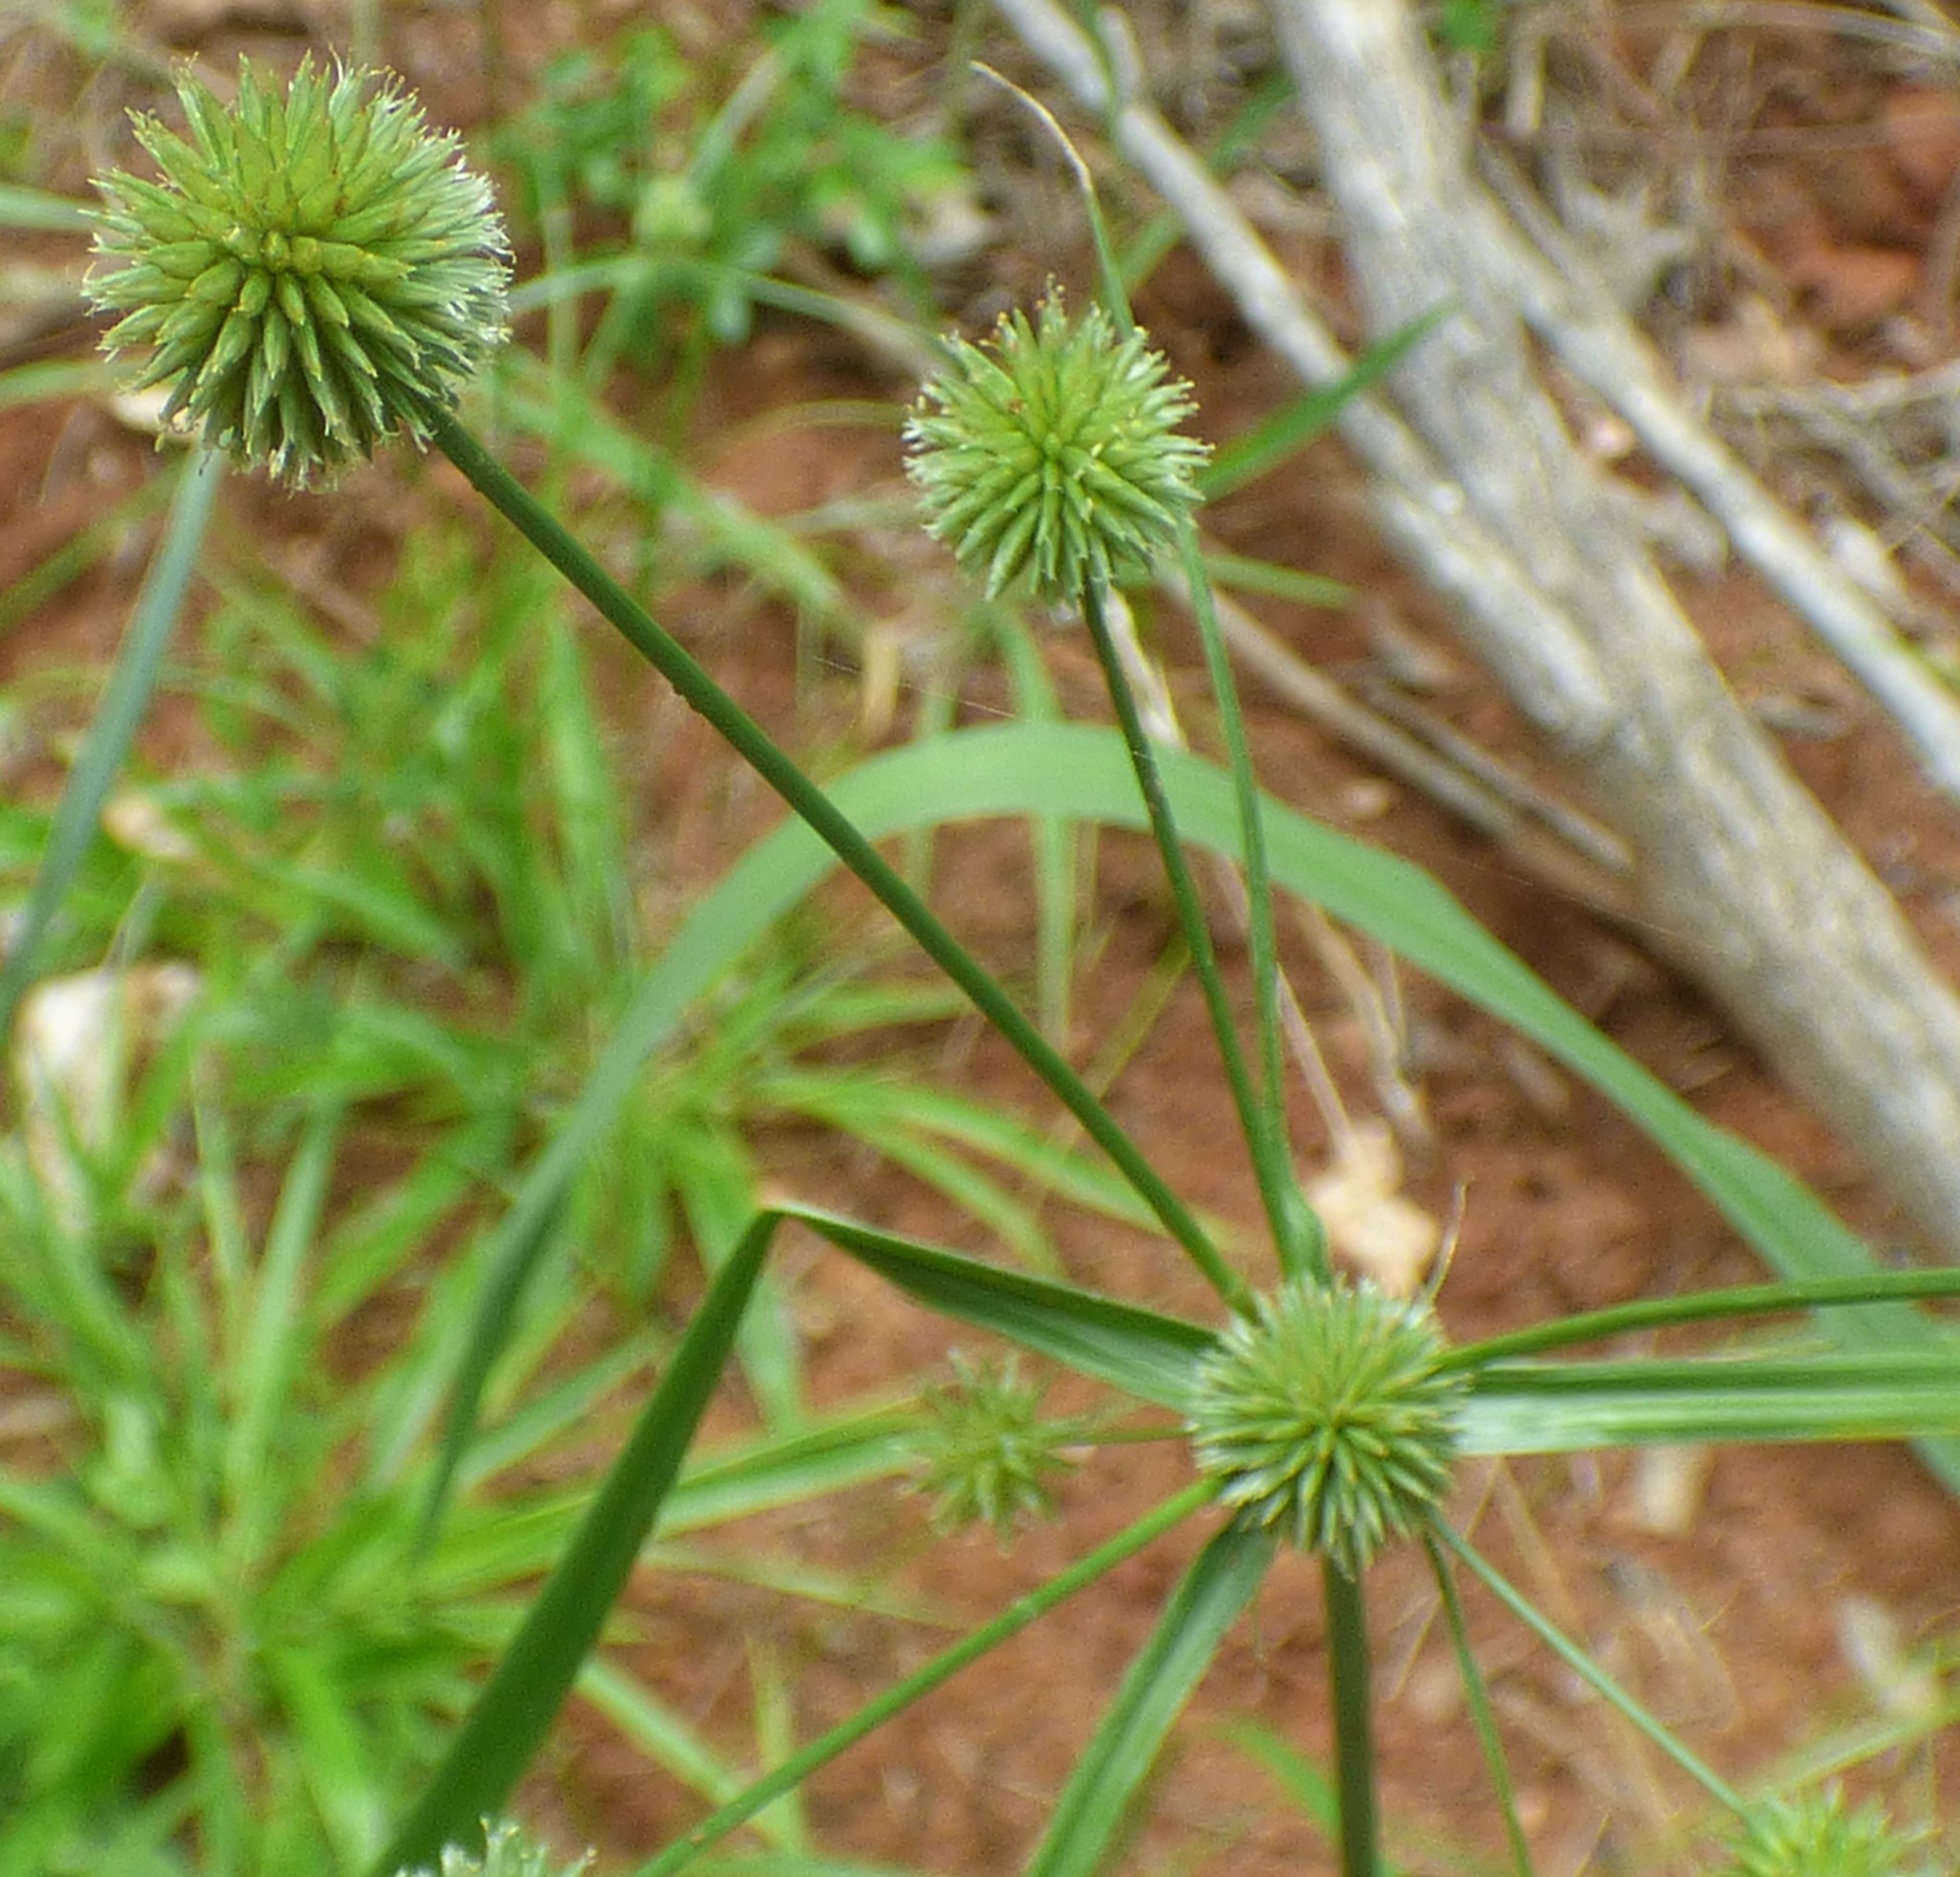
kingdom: Plantae
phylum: Tracheophyta
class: Liliopsida
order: Poales
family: Cyperaceae
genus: Cyperus
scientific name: Cyperus echinatus
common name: Teasel sedge
